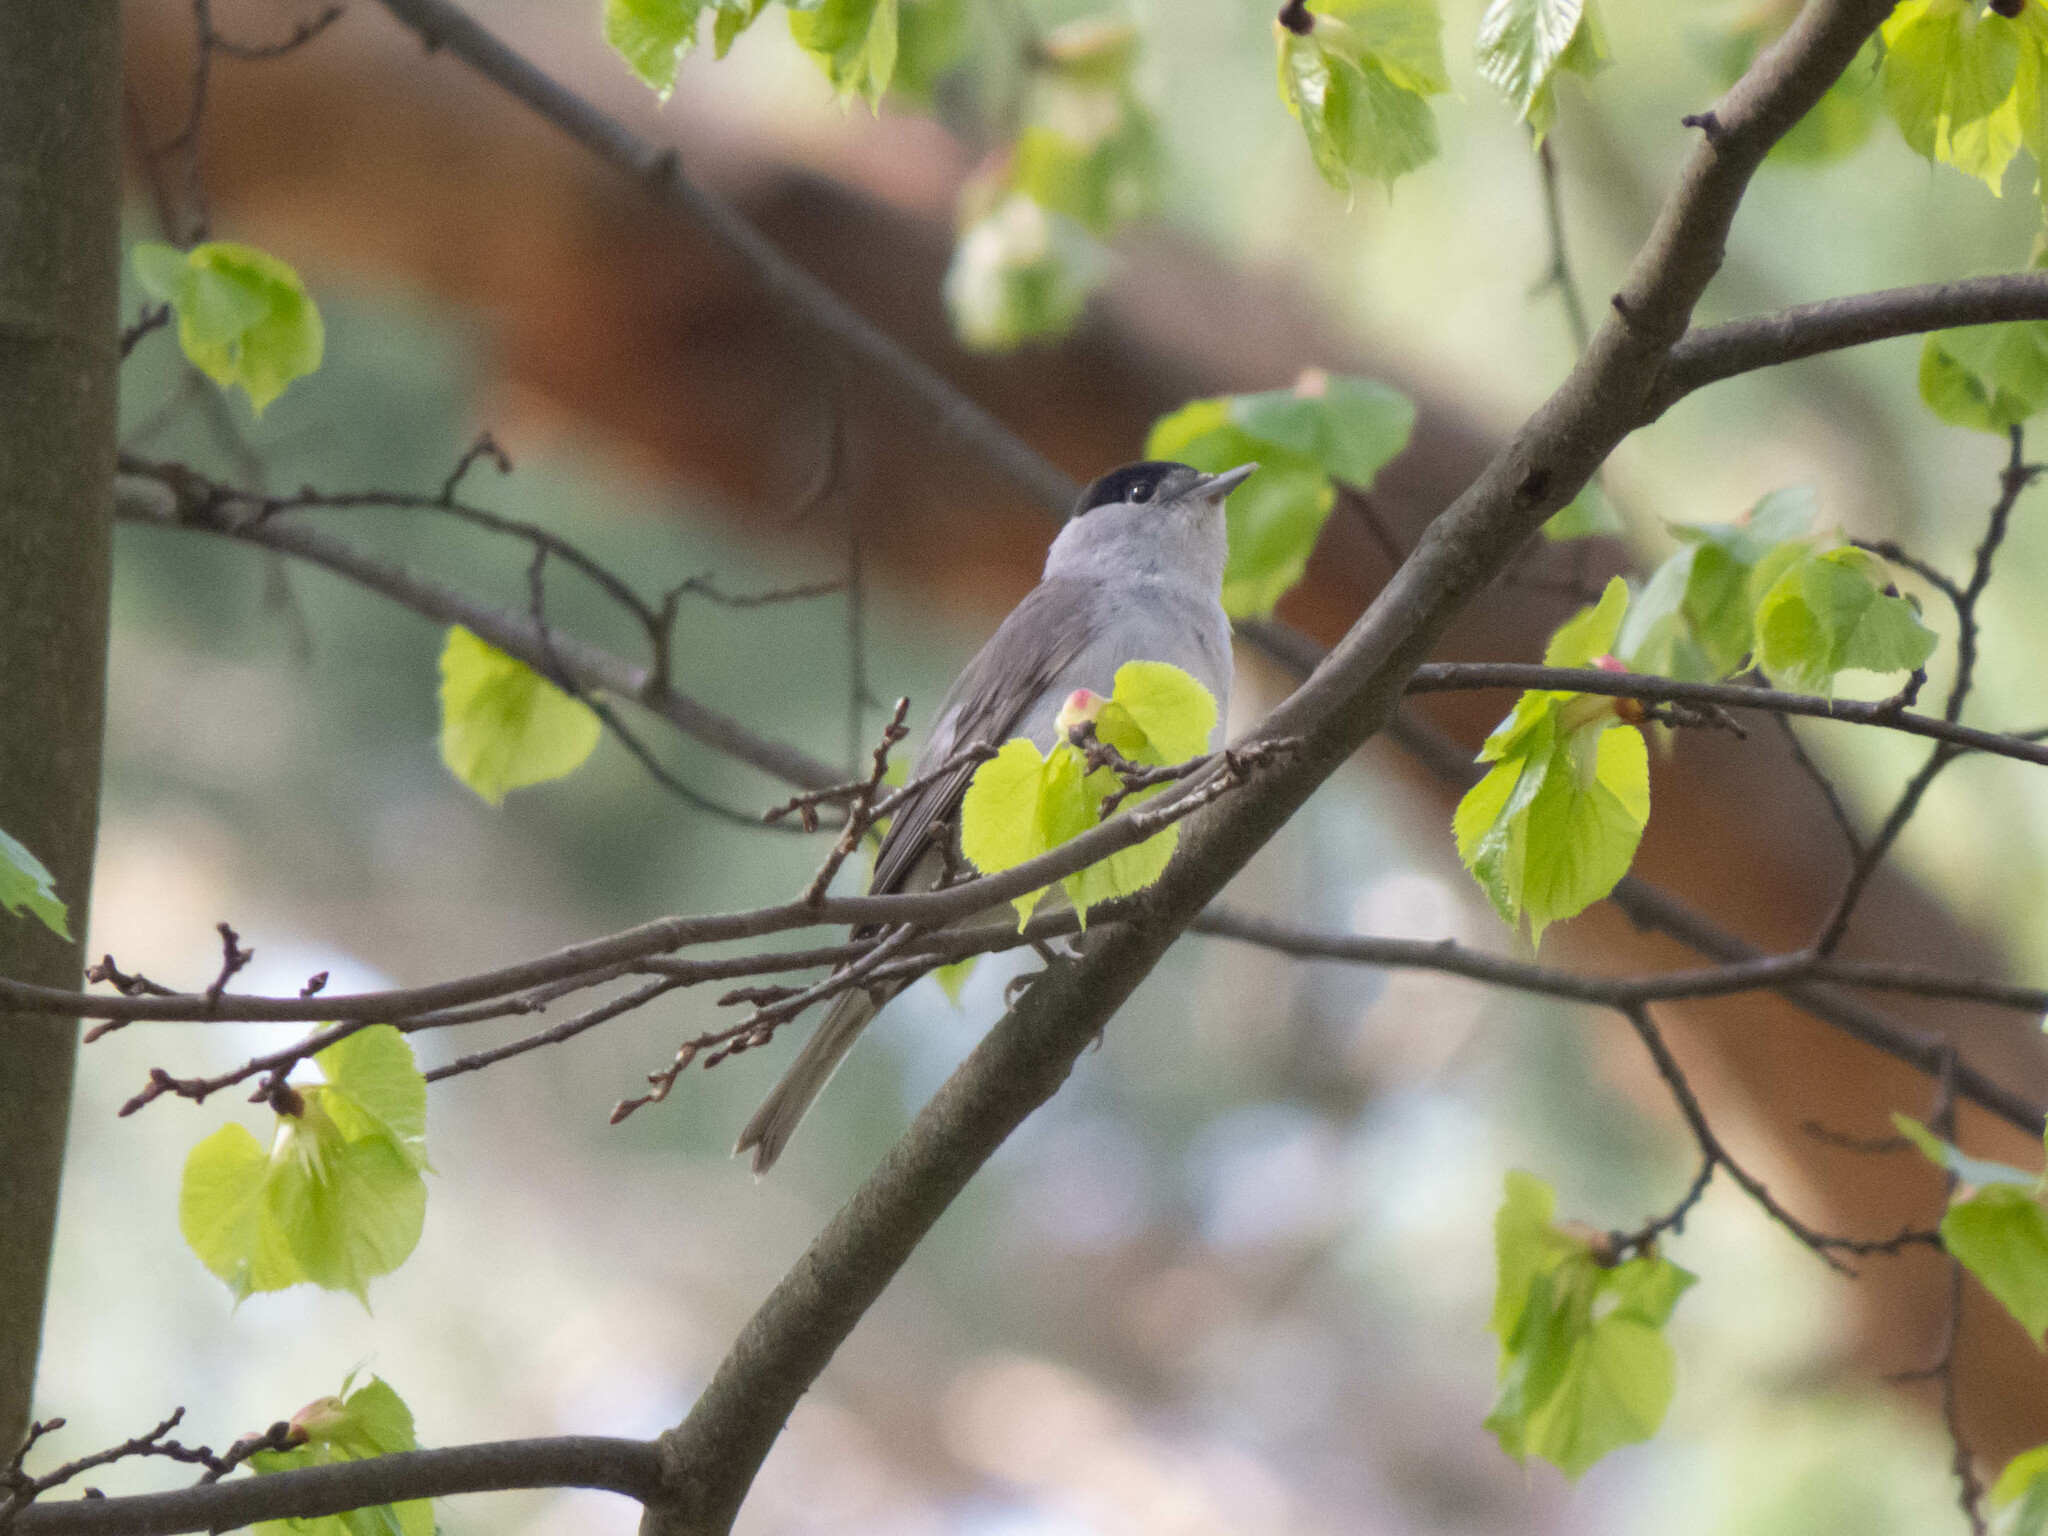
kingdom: Animalia
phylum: Chordata
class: Aves
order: Passeriformes
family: Sylviidae
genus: Sylvia
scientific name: Sylvia atricapilla
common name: Eurasian blackcap
